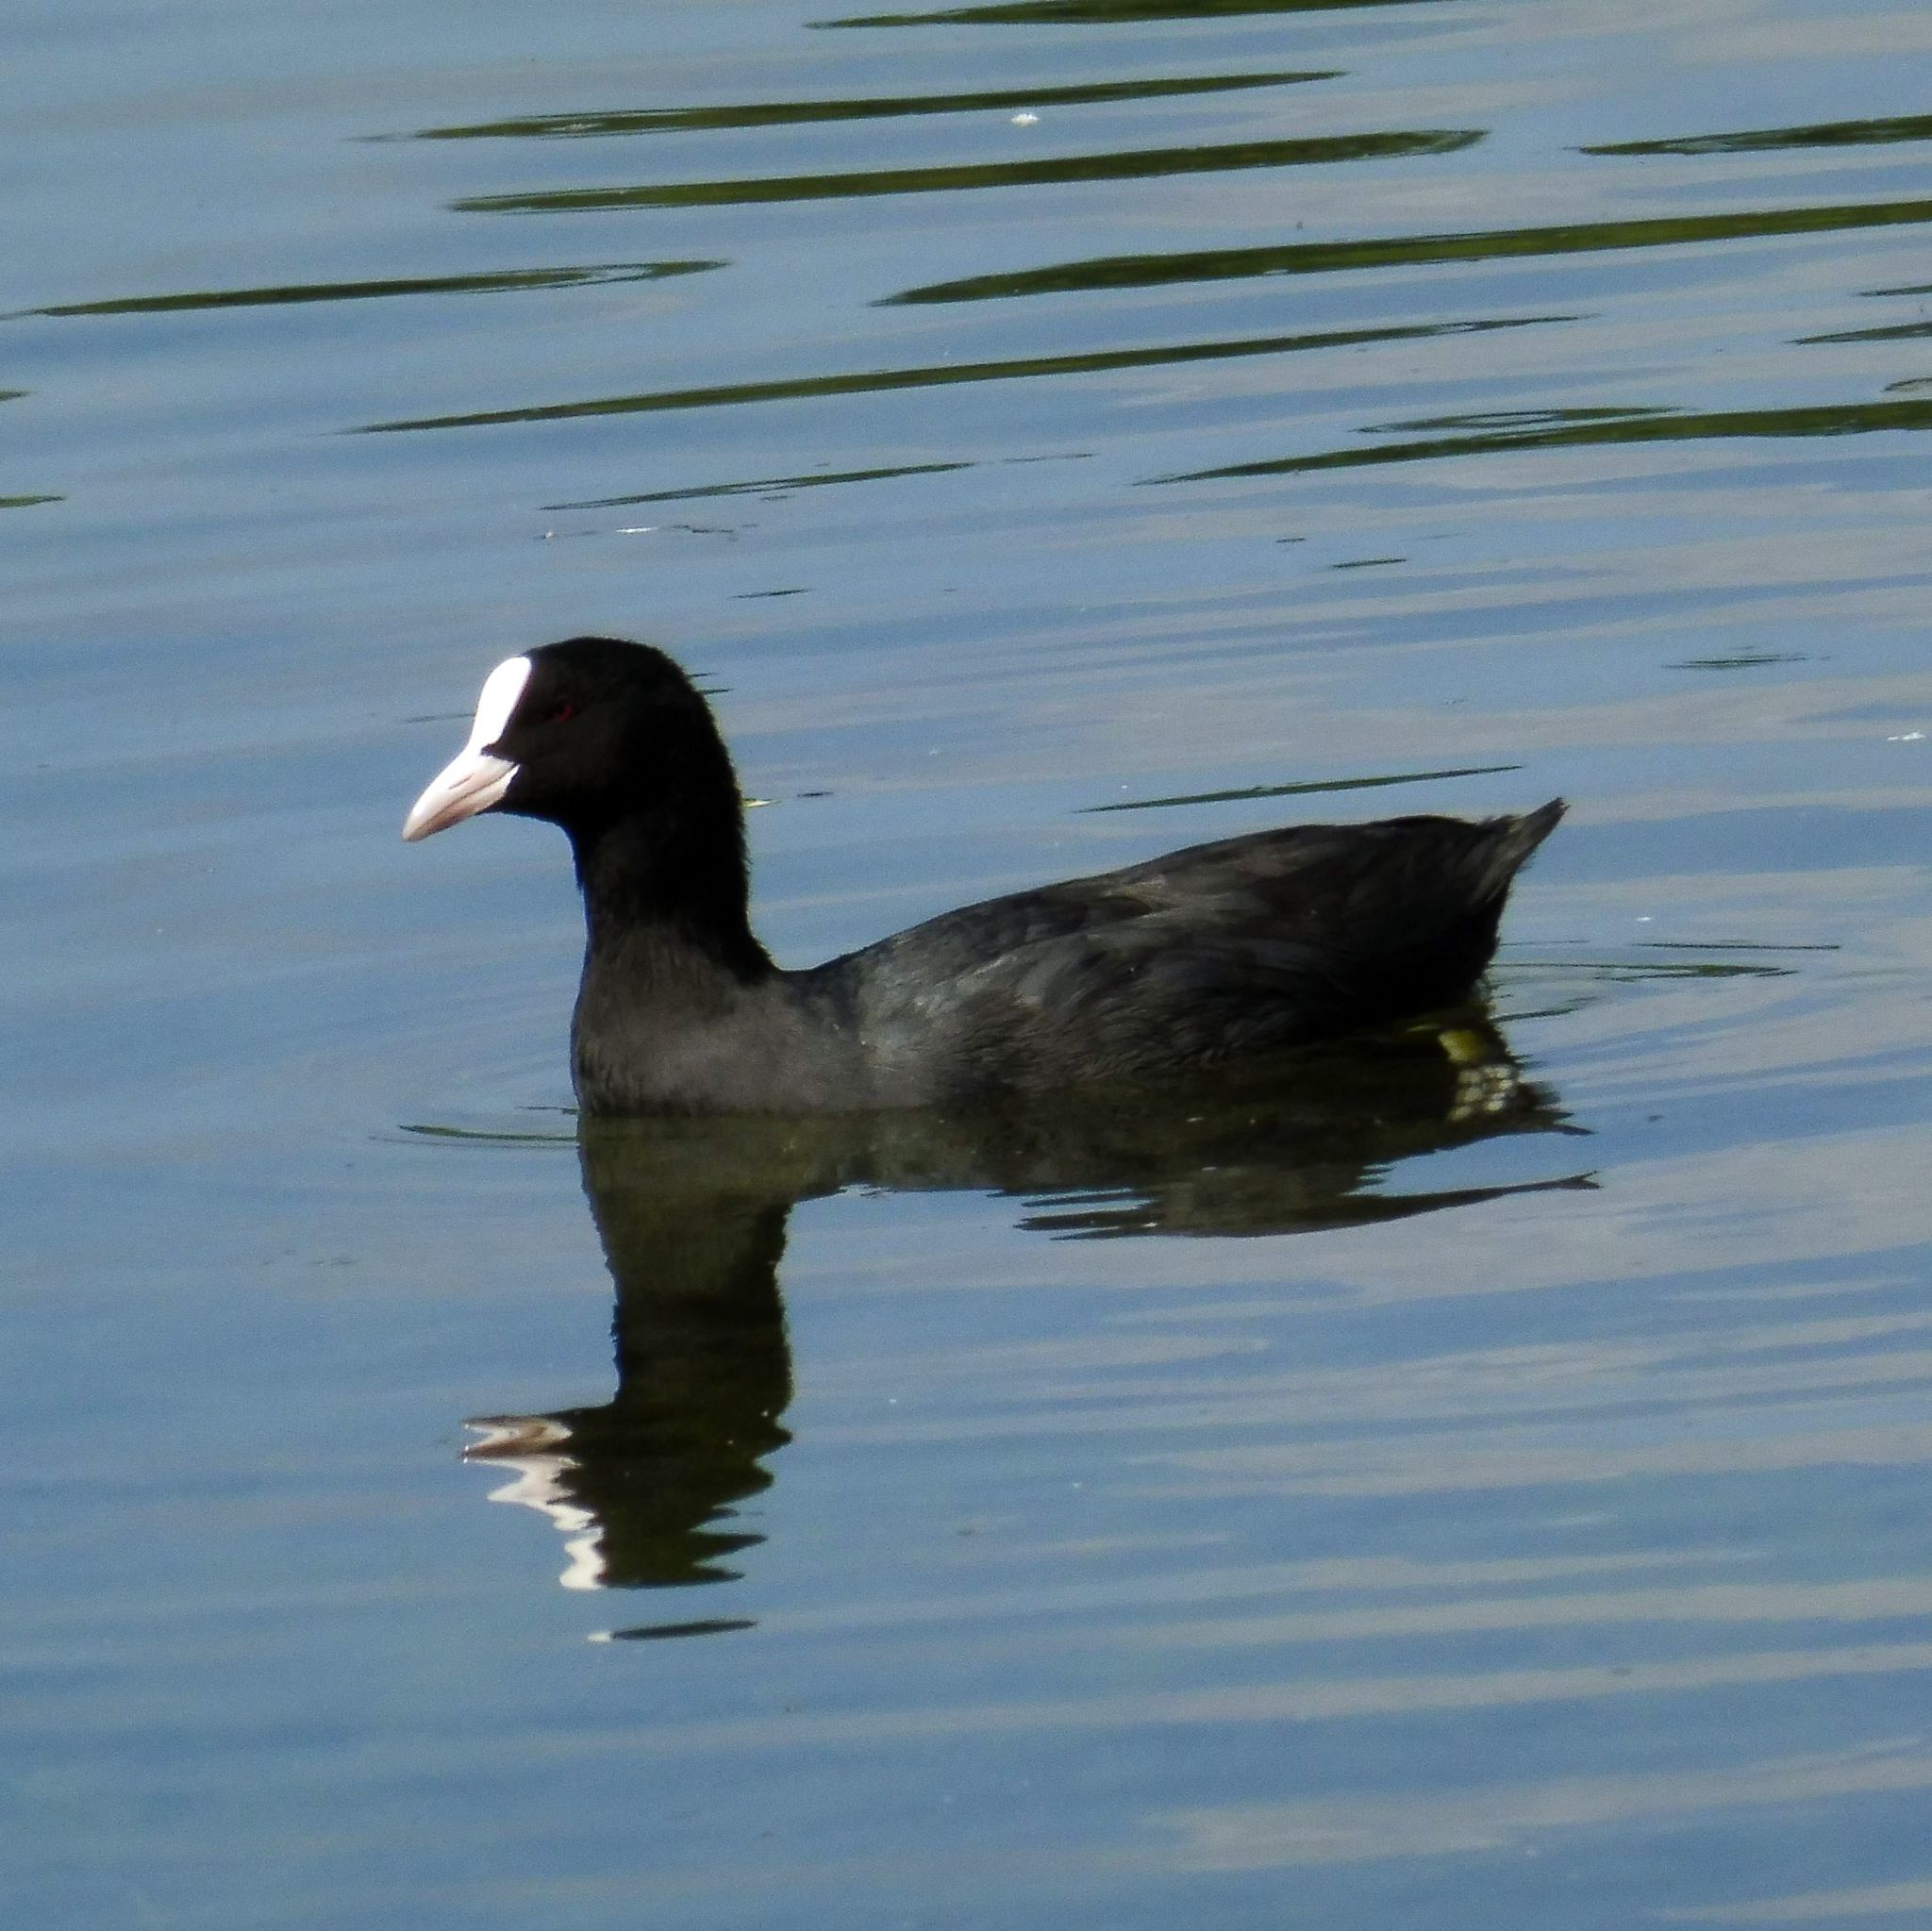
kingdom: Animalia
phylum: Chordata
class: Aves
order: Gruiformes
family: Rallidae
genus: Fulica
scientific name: Fulica atra
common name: Eurasian coot
